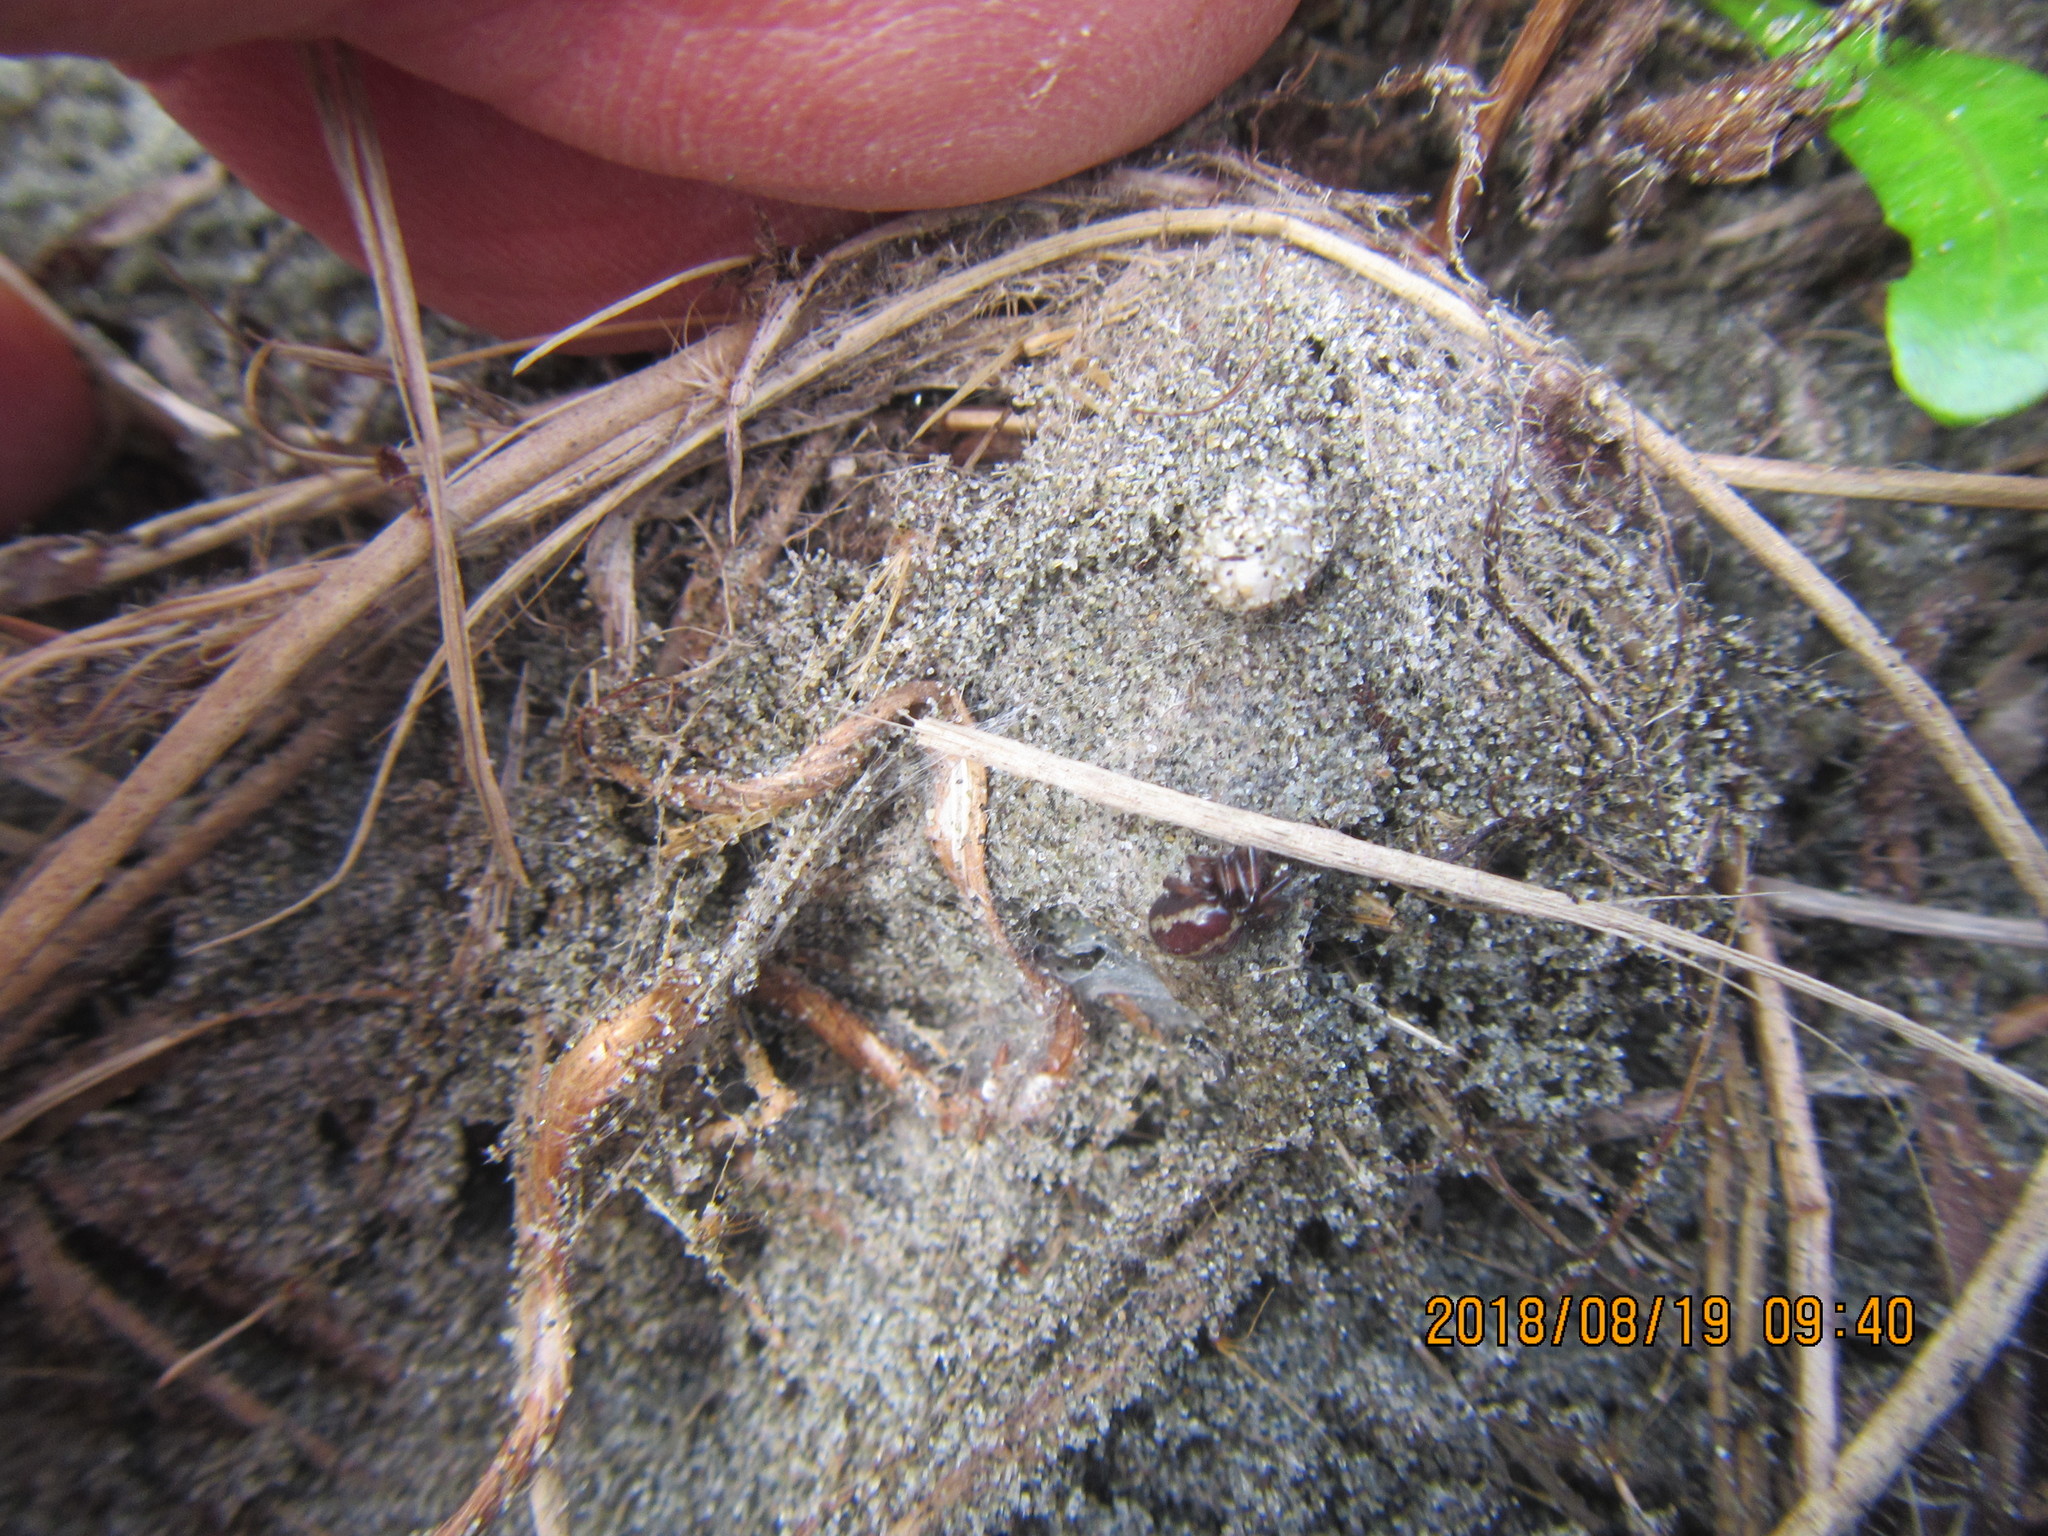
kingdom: Animalia
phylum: Arthropoda
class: Arachnida
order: Araneae
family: Theridiidae
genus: Steatoda
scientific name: Steatoda lepida
